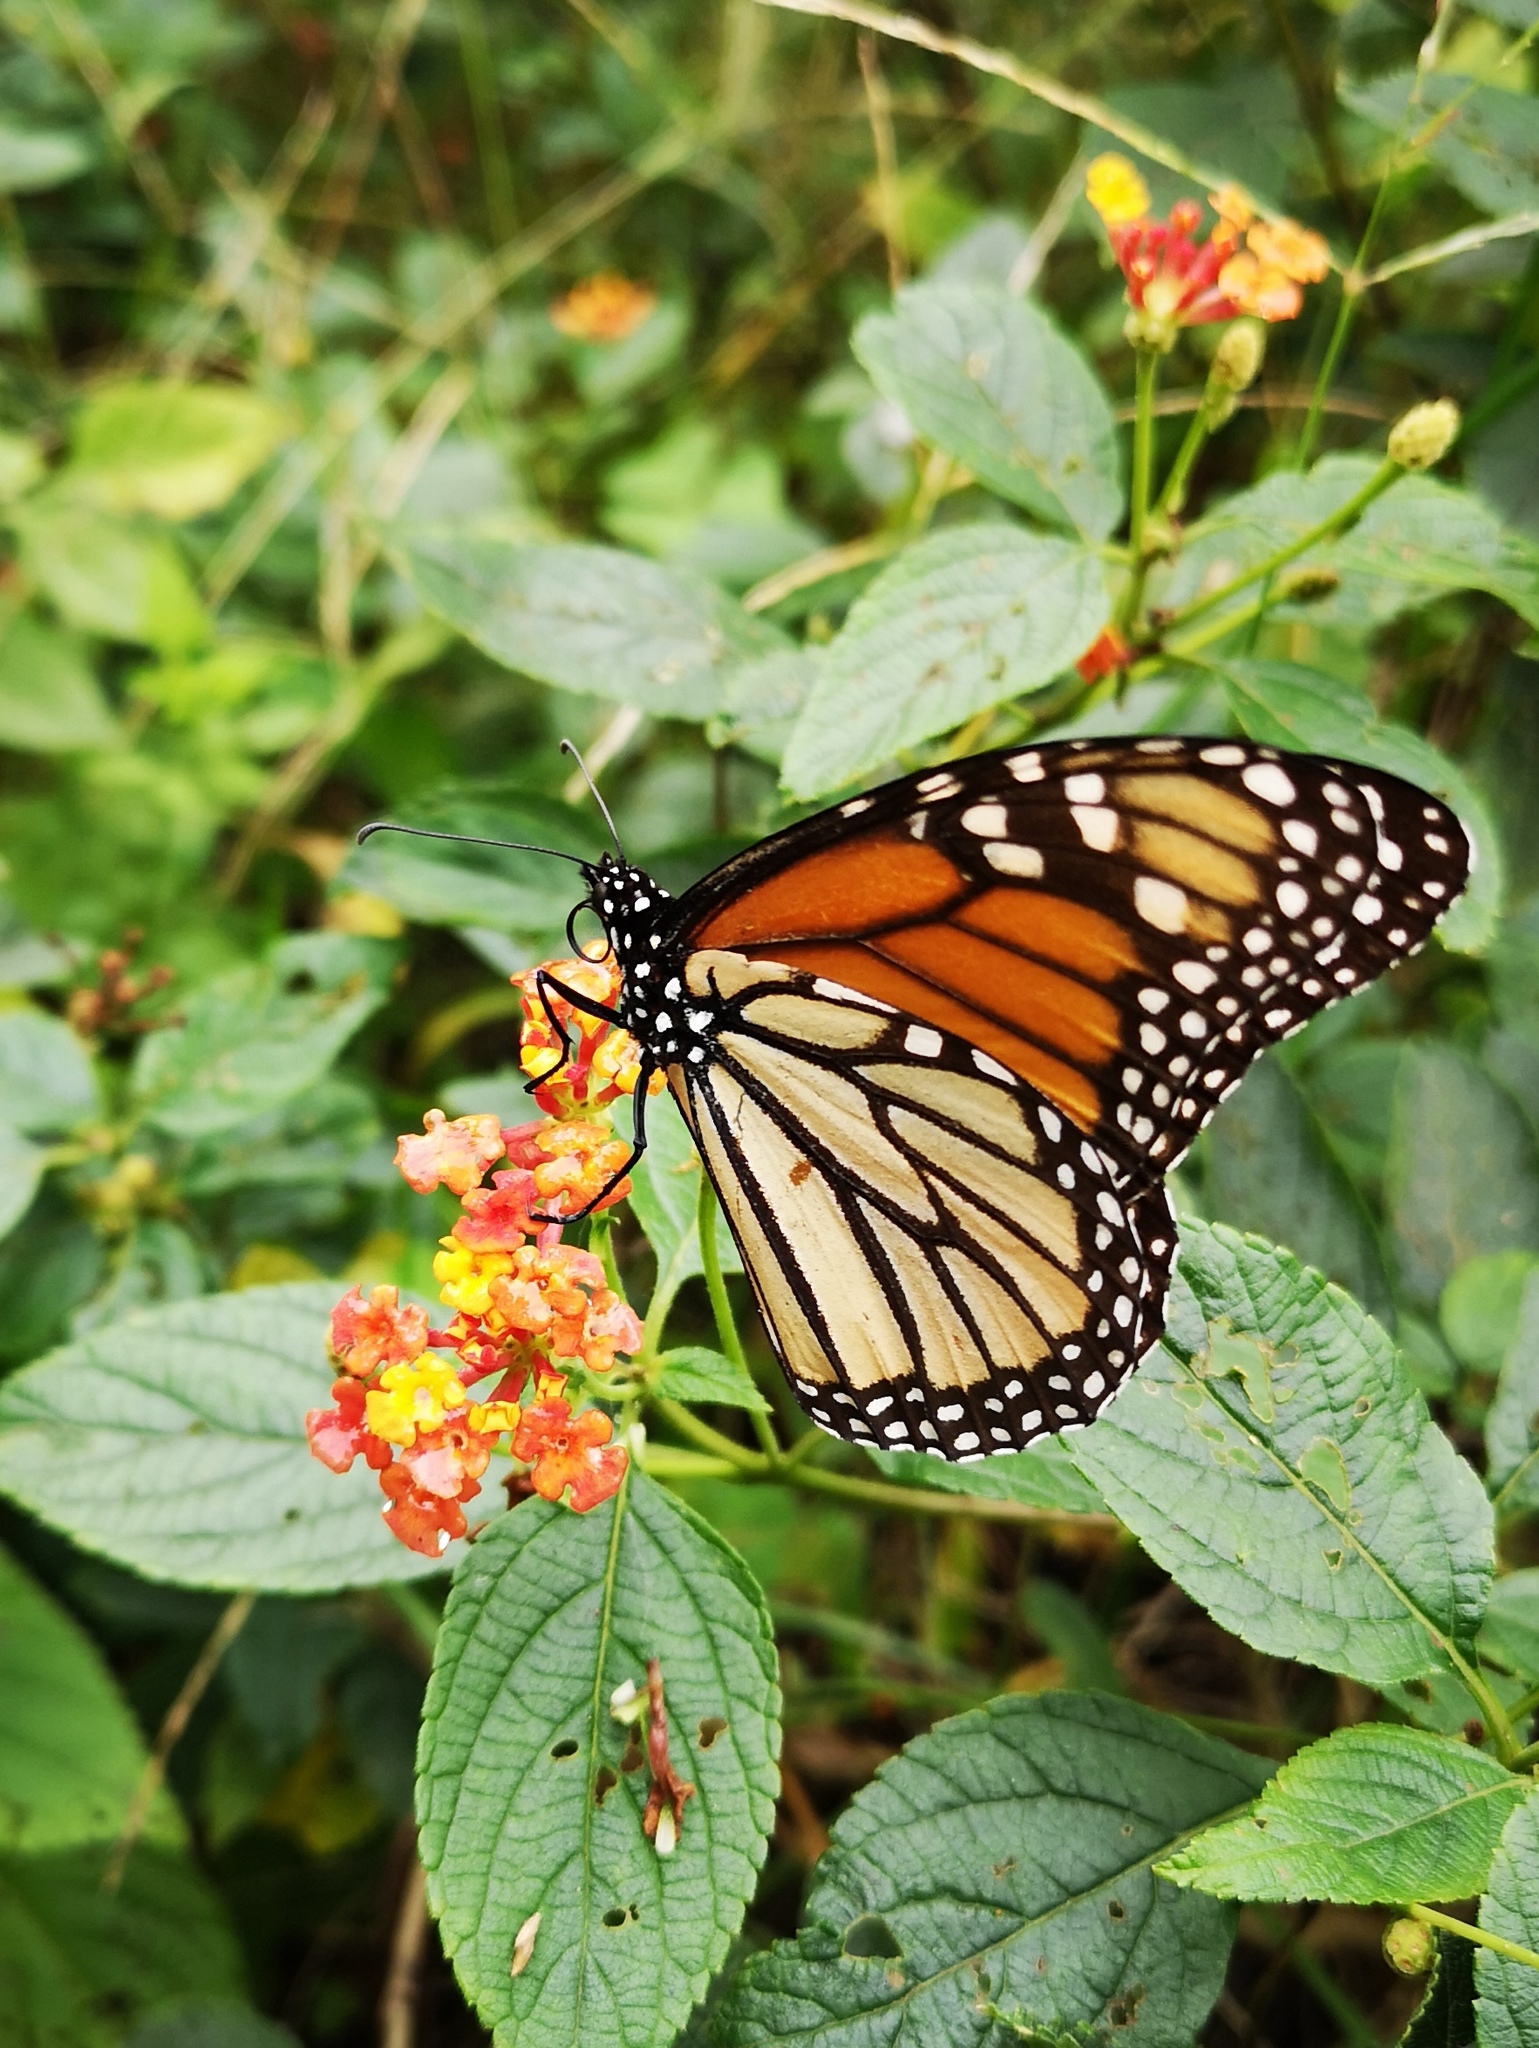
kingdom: Animalia
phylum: Arthropoda
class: Insecta
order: Lepidoptera
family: Nymphalidae
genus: Danaus
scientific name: Danaus plexippus
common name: Monarch
